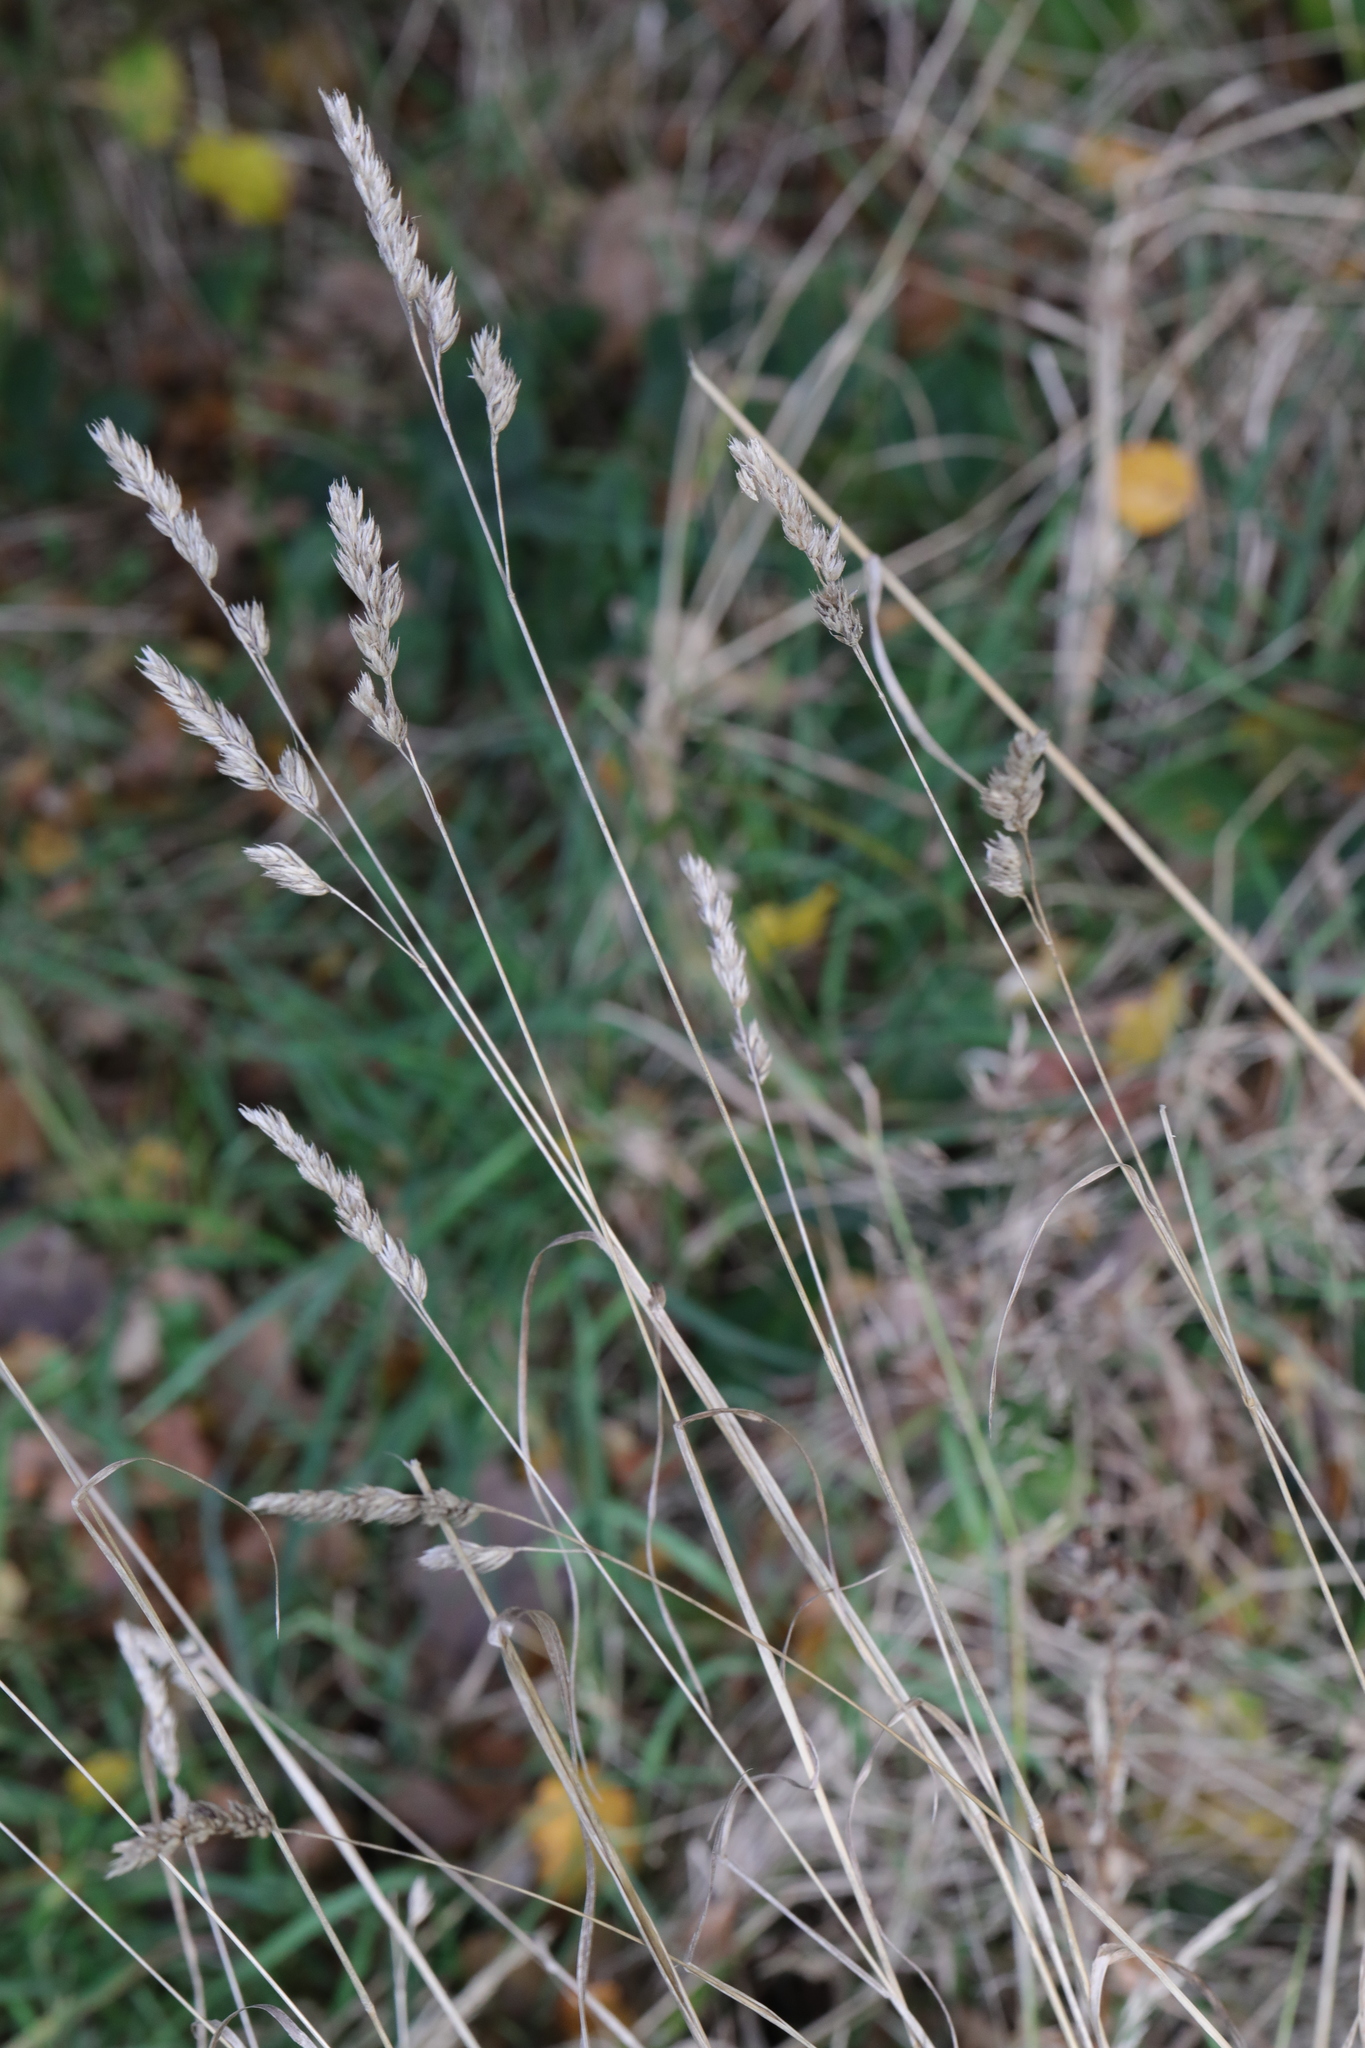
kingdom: Plantae
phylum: Tracheophyta
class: Liliopsida
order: Poales
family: Poaceae
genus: Dactylis
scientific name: Dactylis glomerata
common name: Orchardgrass
